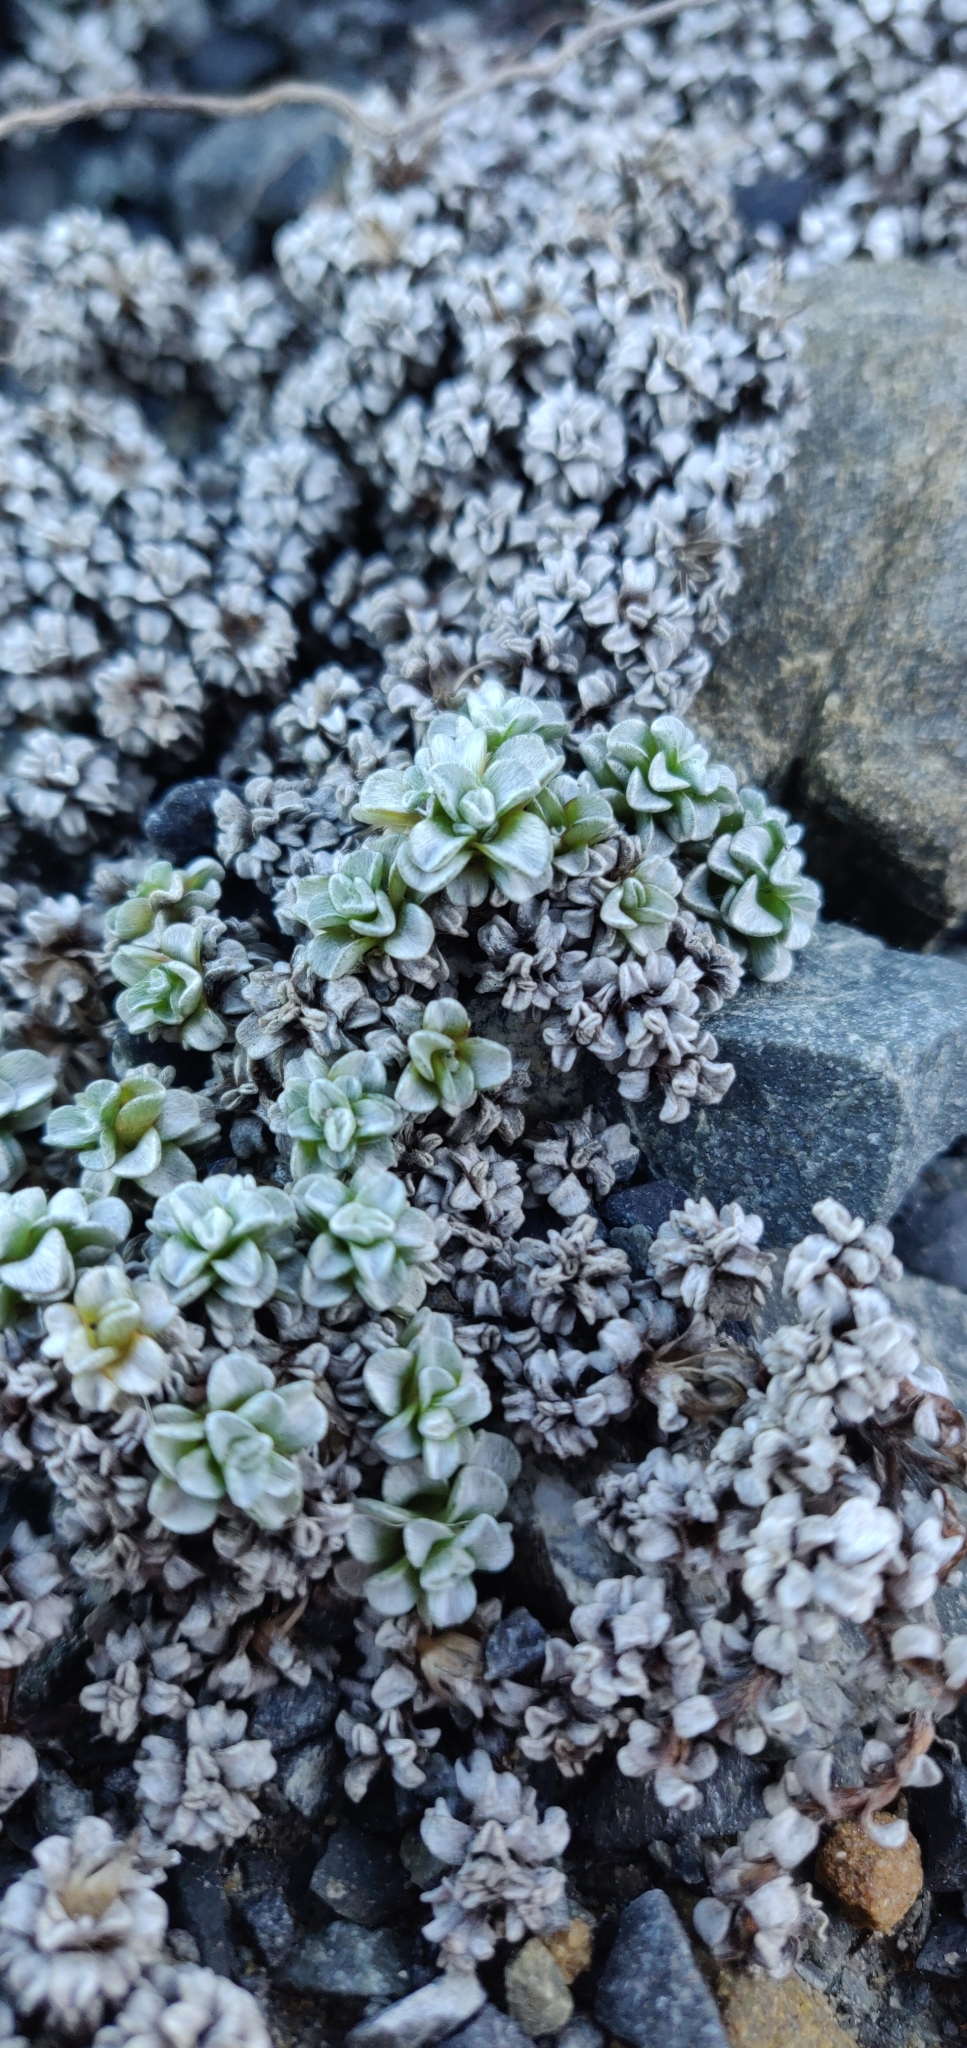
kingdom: Plantae
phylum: Tracheophyta
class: Magnoliopsida
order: Asterales
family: Asteraceae
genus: Raoulia
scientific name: Raoulia hookeri
